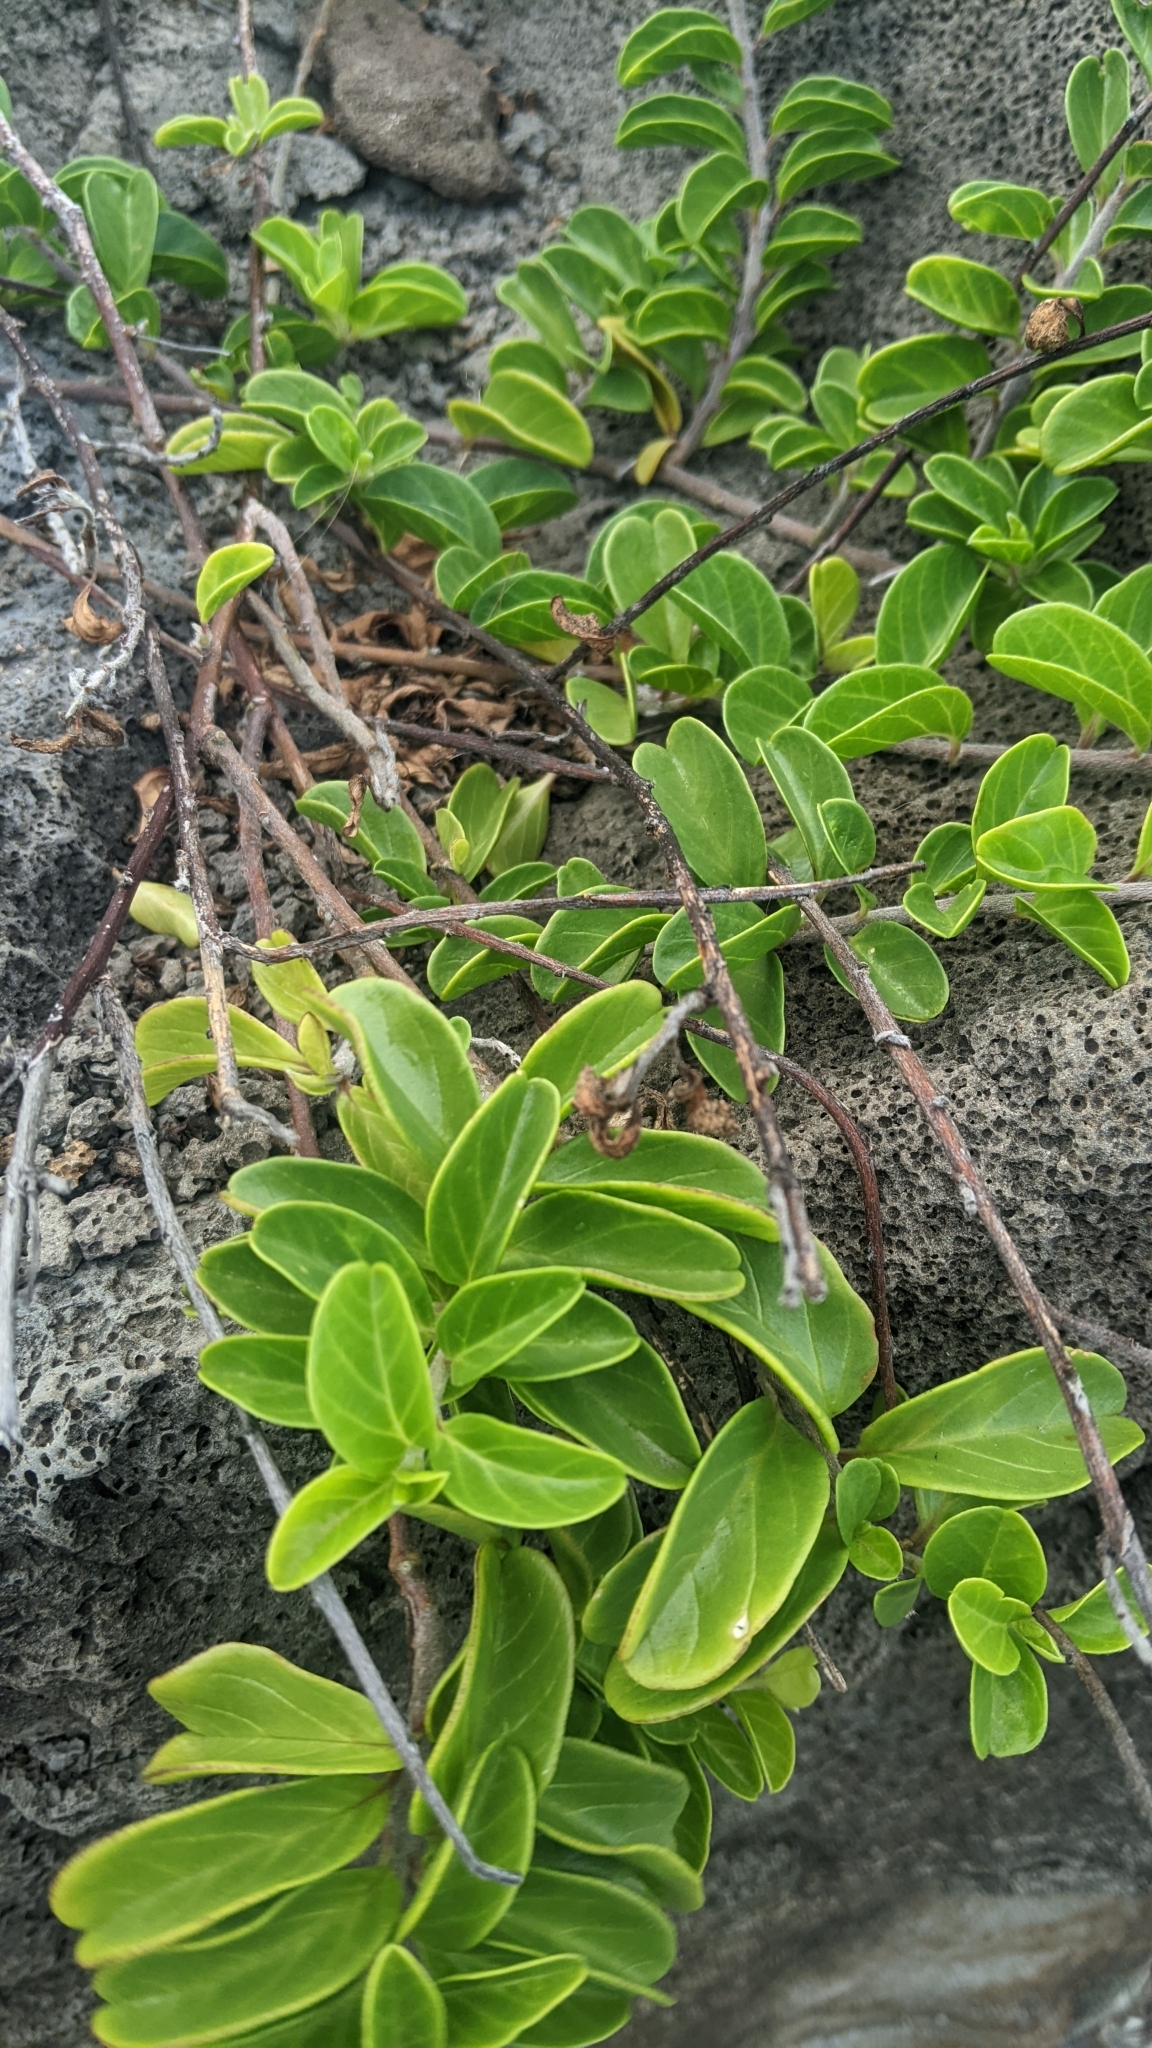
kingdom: Plantae
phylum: Tracheophyta
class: Magnoliopsida
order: Solanales
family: Convolvulaceae
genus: Jacquemontia
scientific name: Jacquemontia sandwicensis
